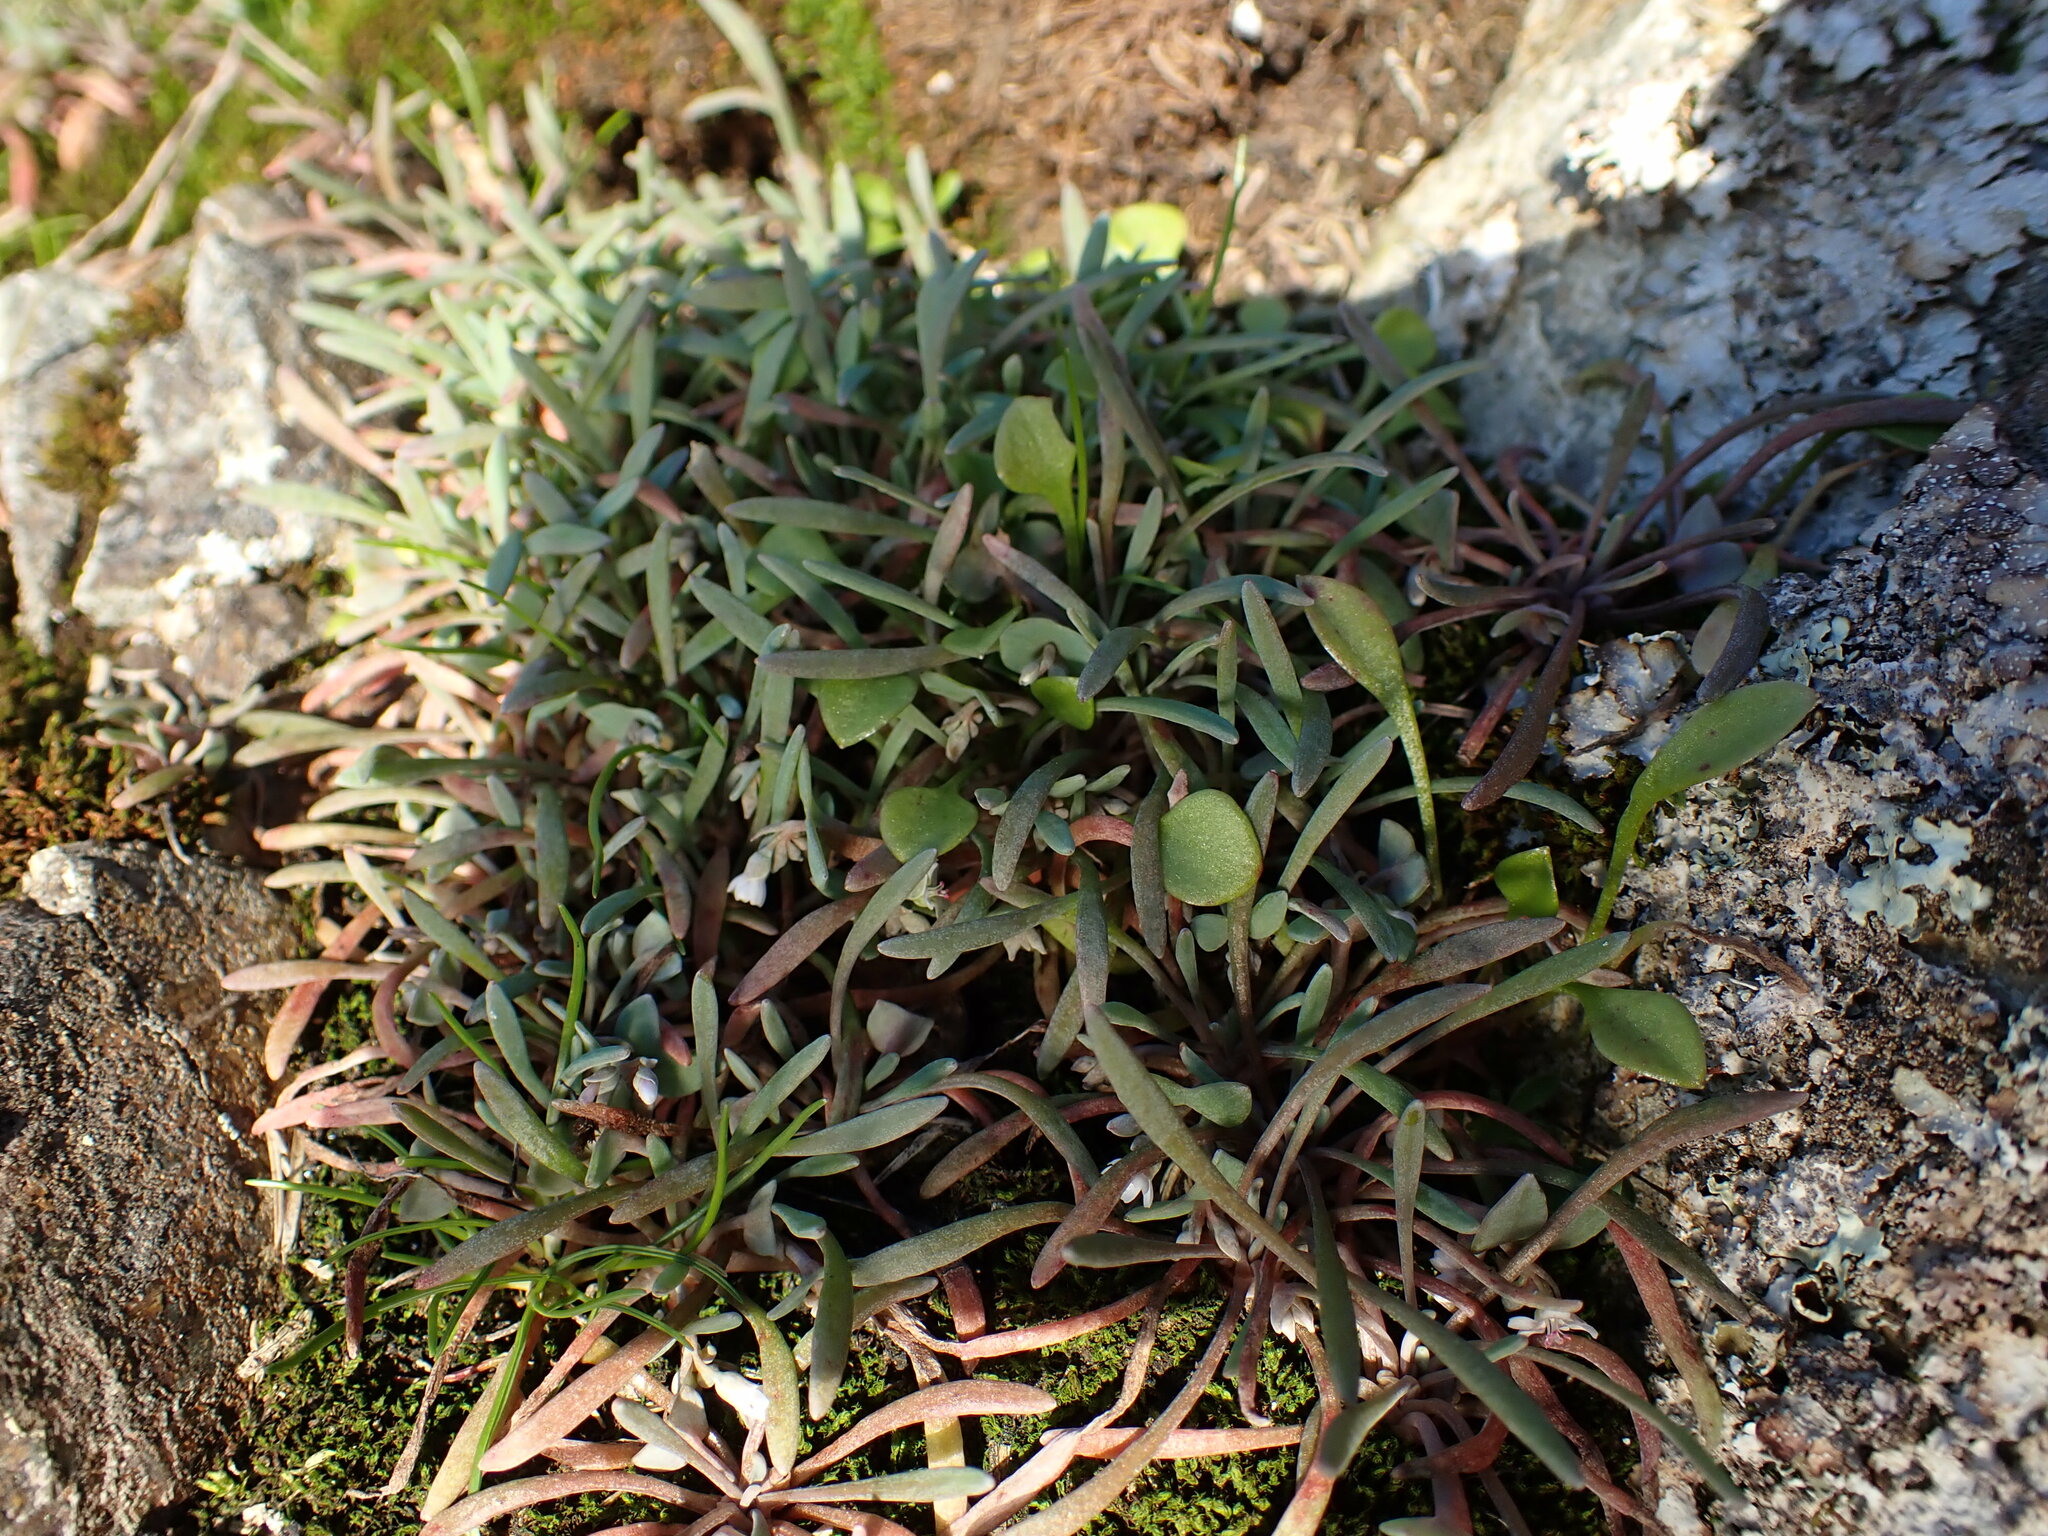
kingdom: Plantae
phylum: Tracheophyta
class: Magnoliopsida
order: Caryophyllales
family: Montiaceae
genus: Claytonia
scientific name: Claytonia exigua
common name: Pale spring beauty
